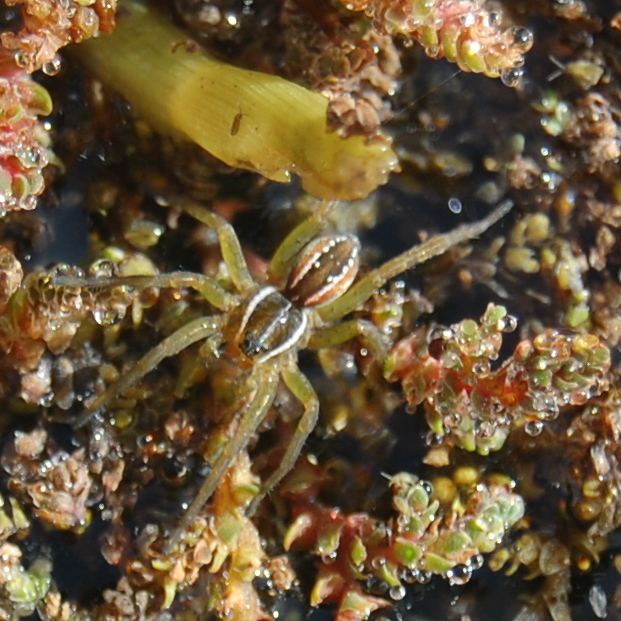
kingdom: Animalia
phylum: Arthropoda
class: Arachnida
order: Araneae
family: Lycosidae
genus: Diapontia
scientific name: Diapontia uruguayensis
